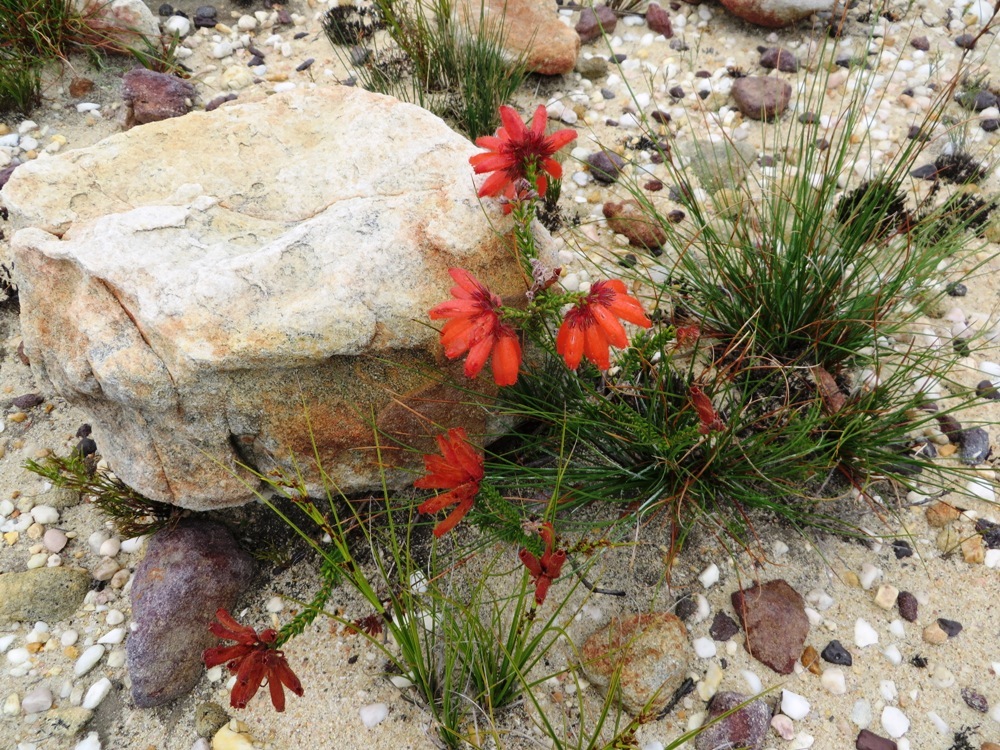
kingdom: Plantae
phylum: Tracheophyta
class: Magnoliopsida
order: Ericales
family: Ericaceae
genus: Erica
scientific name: Erica cerinthoides
